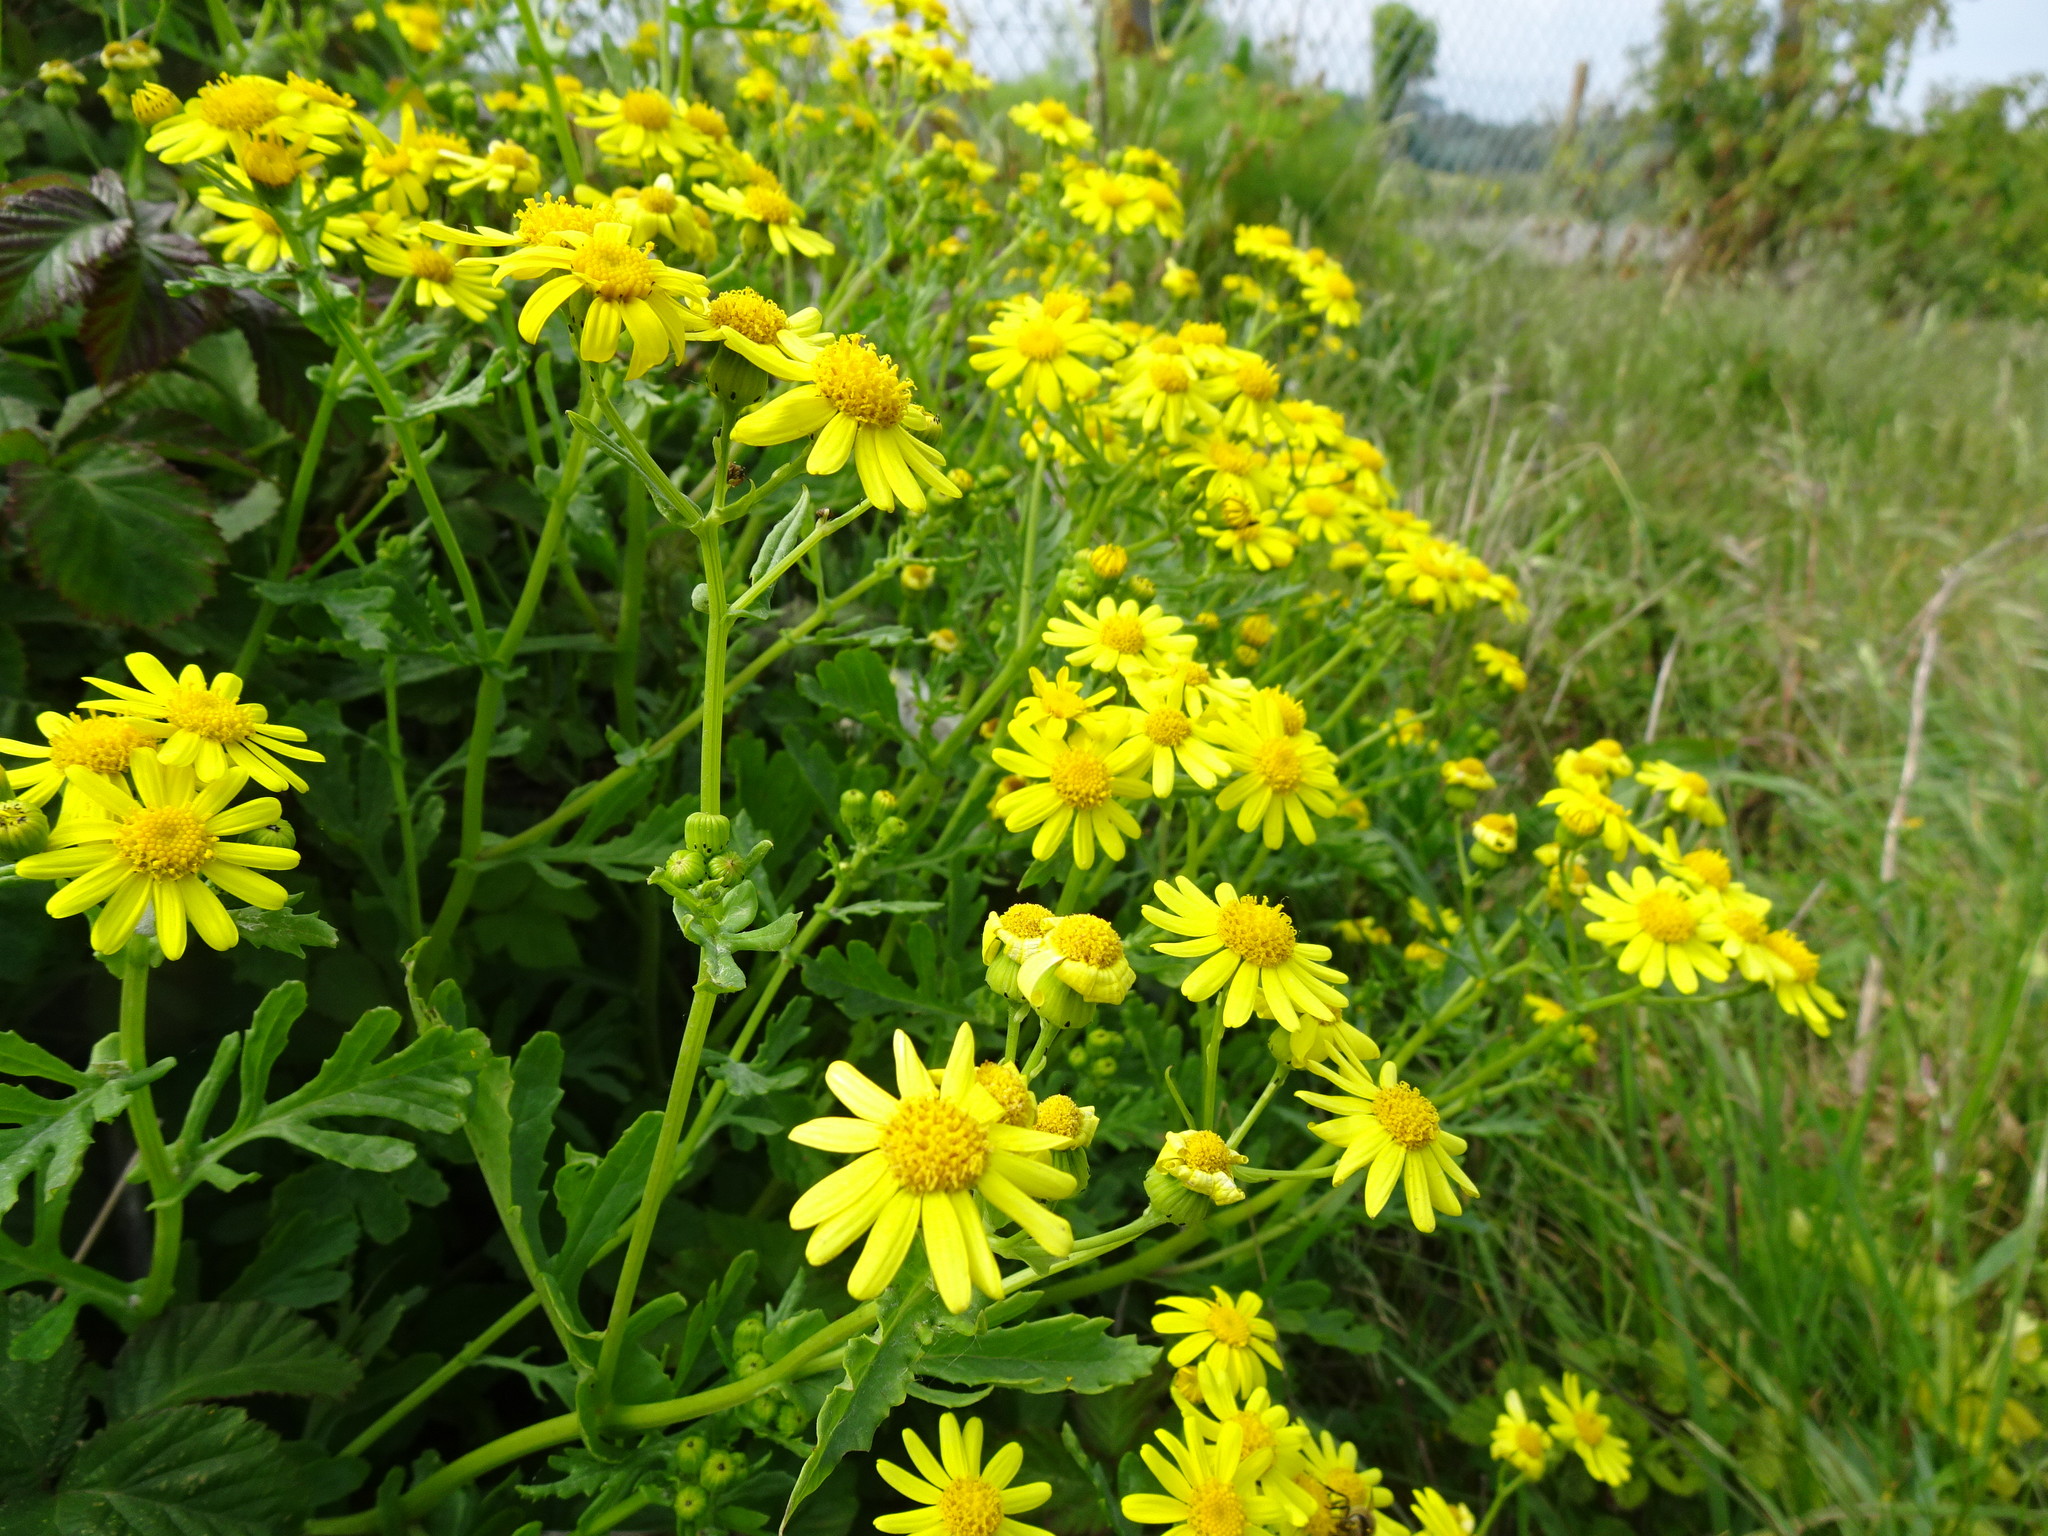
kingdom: Plantae
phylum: Tracheophyta
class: Magnoliopsida
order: Asterales
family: Asteraceae
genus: Senecio
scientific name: Senecio squalidus
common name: Oxford ragwort
